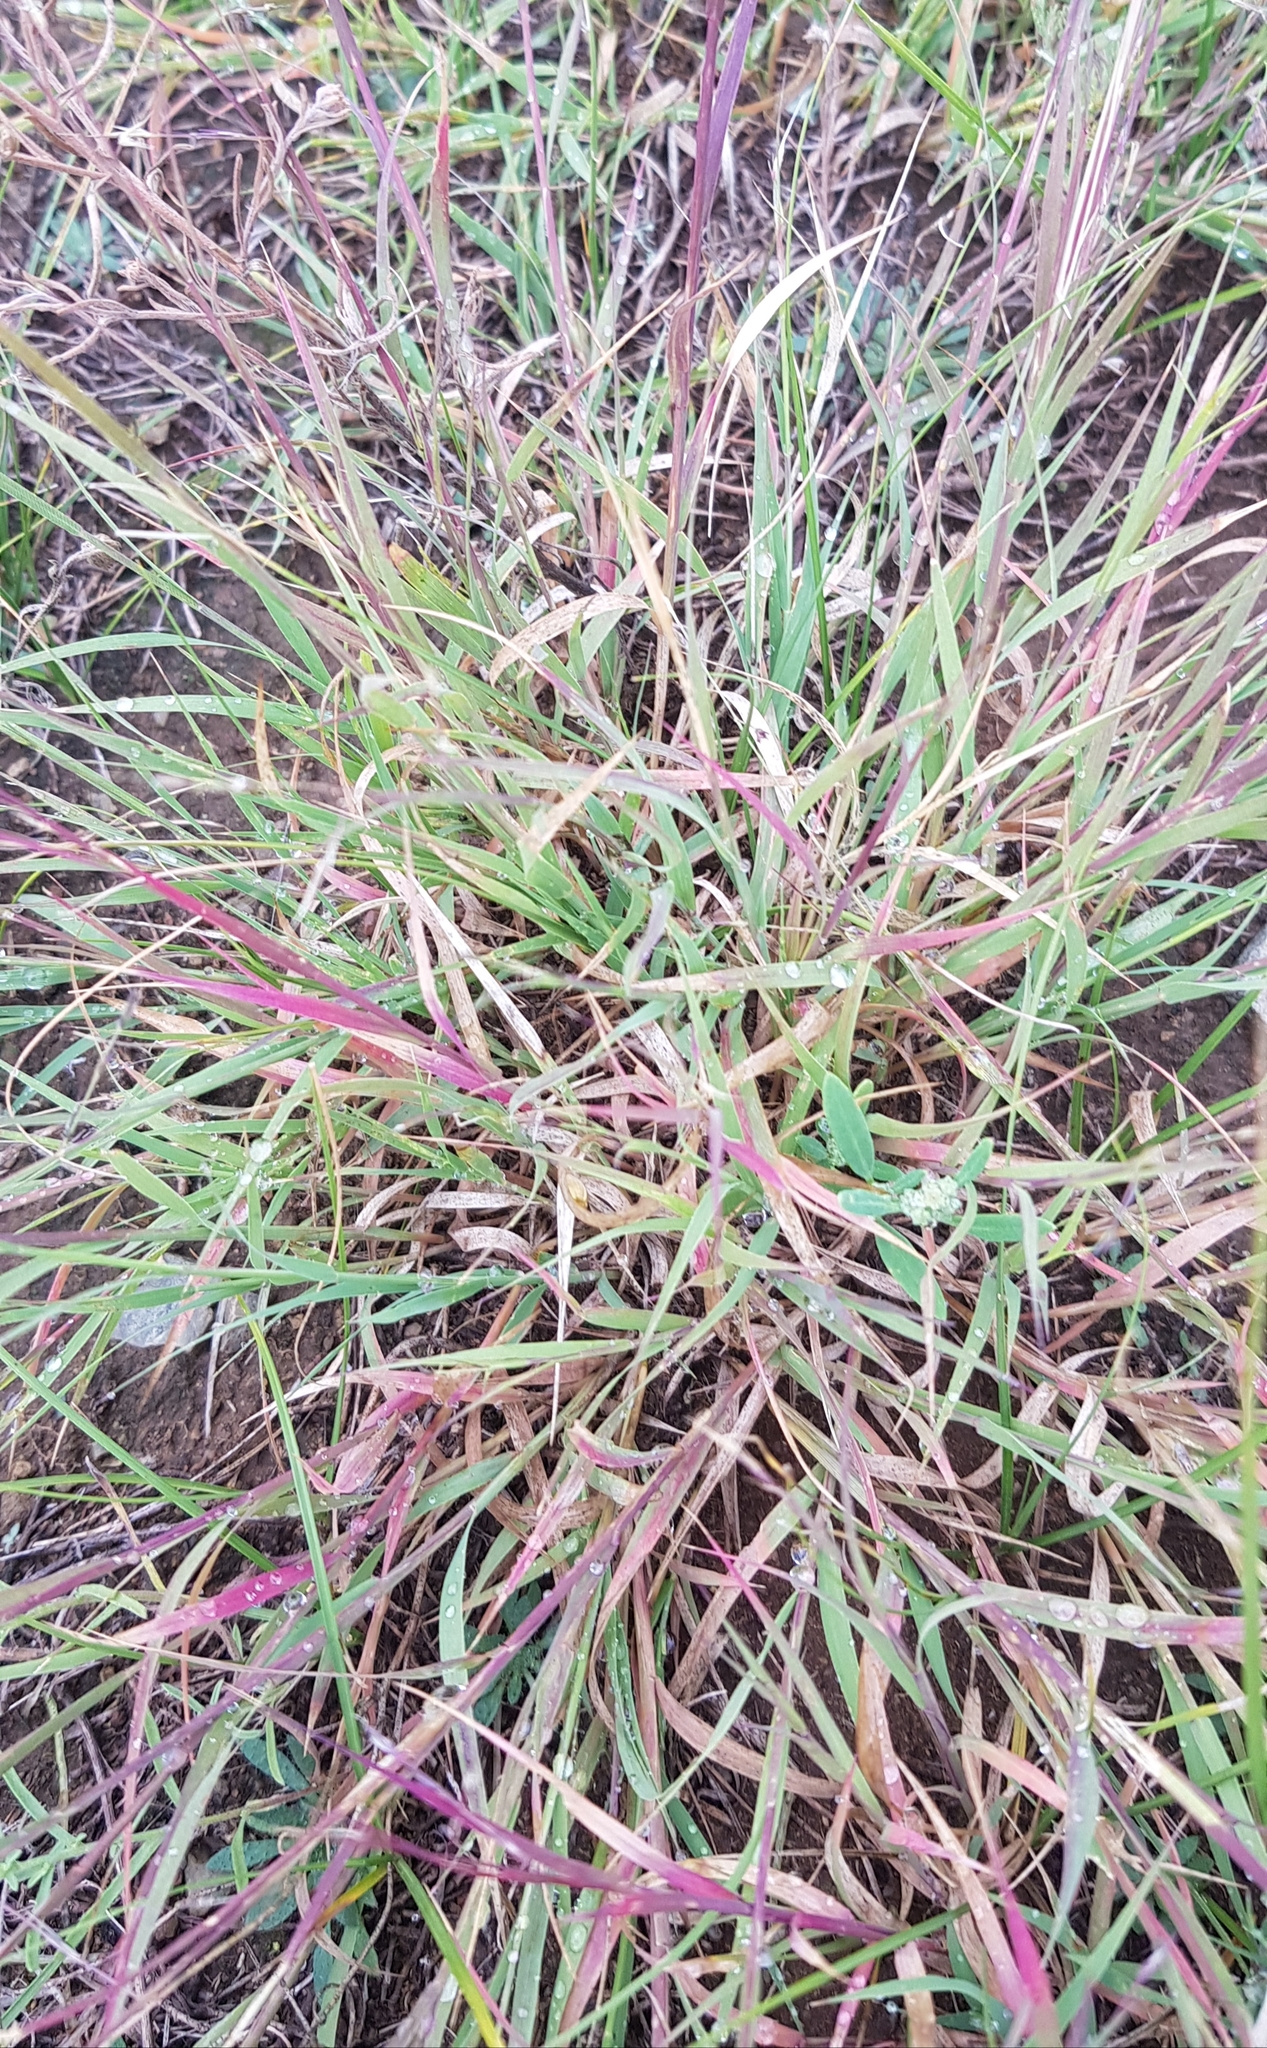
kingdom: Plantae
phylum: Tracheophyta
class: Liliopsida
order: Poales
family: Poaceae
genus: Cleistogenes
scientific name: Cleistogenes squarrosa
